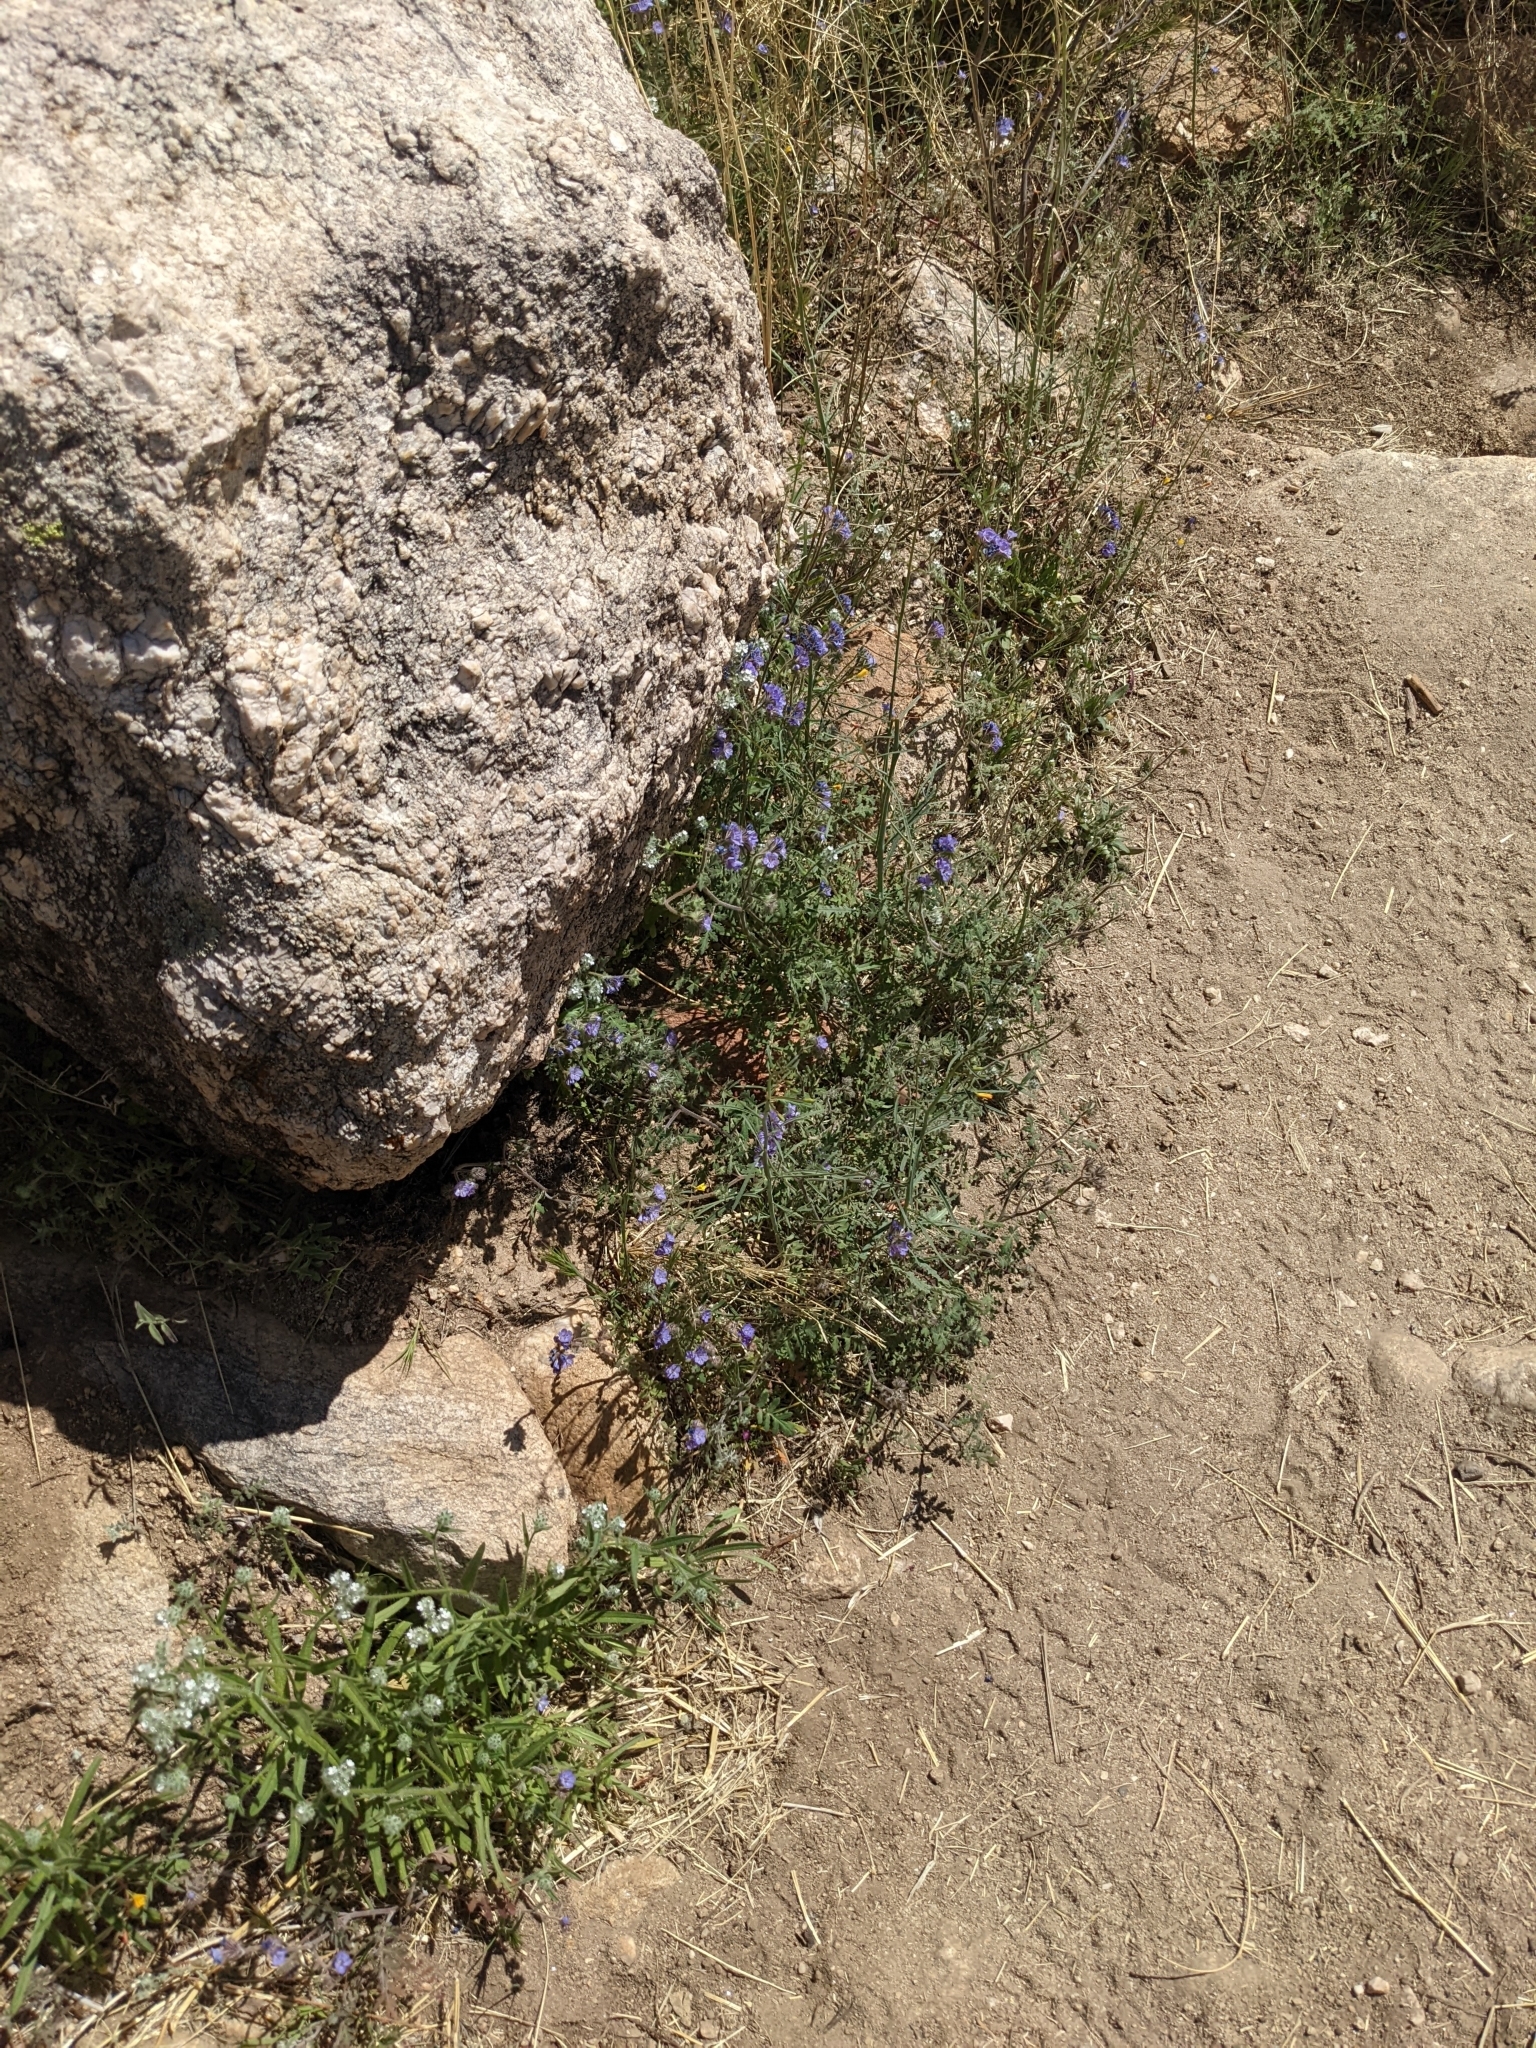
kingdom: Plantae
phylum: Tracheophyta
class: Magnoliopsida
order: Boraginales
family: Hydrophyllaceae
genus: Phacelia
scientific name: Phacelia distans
